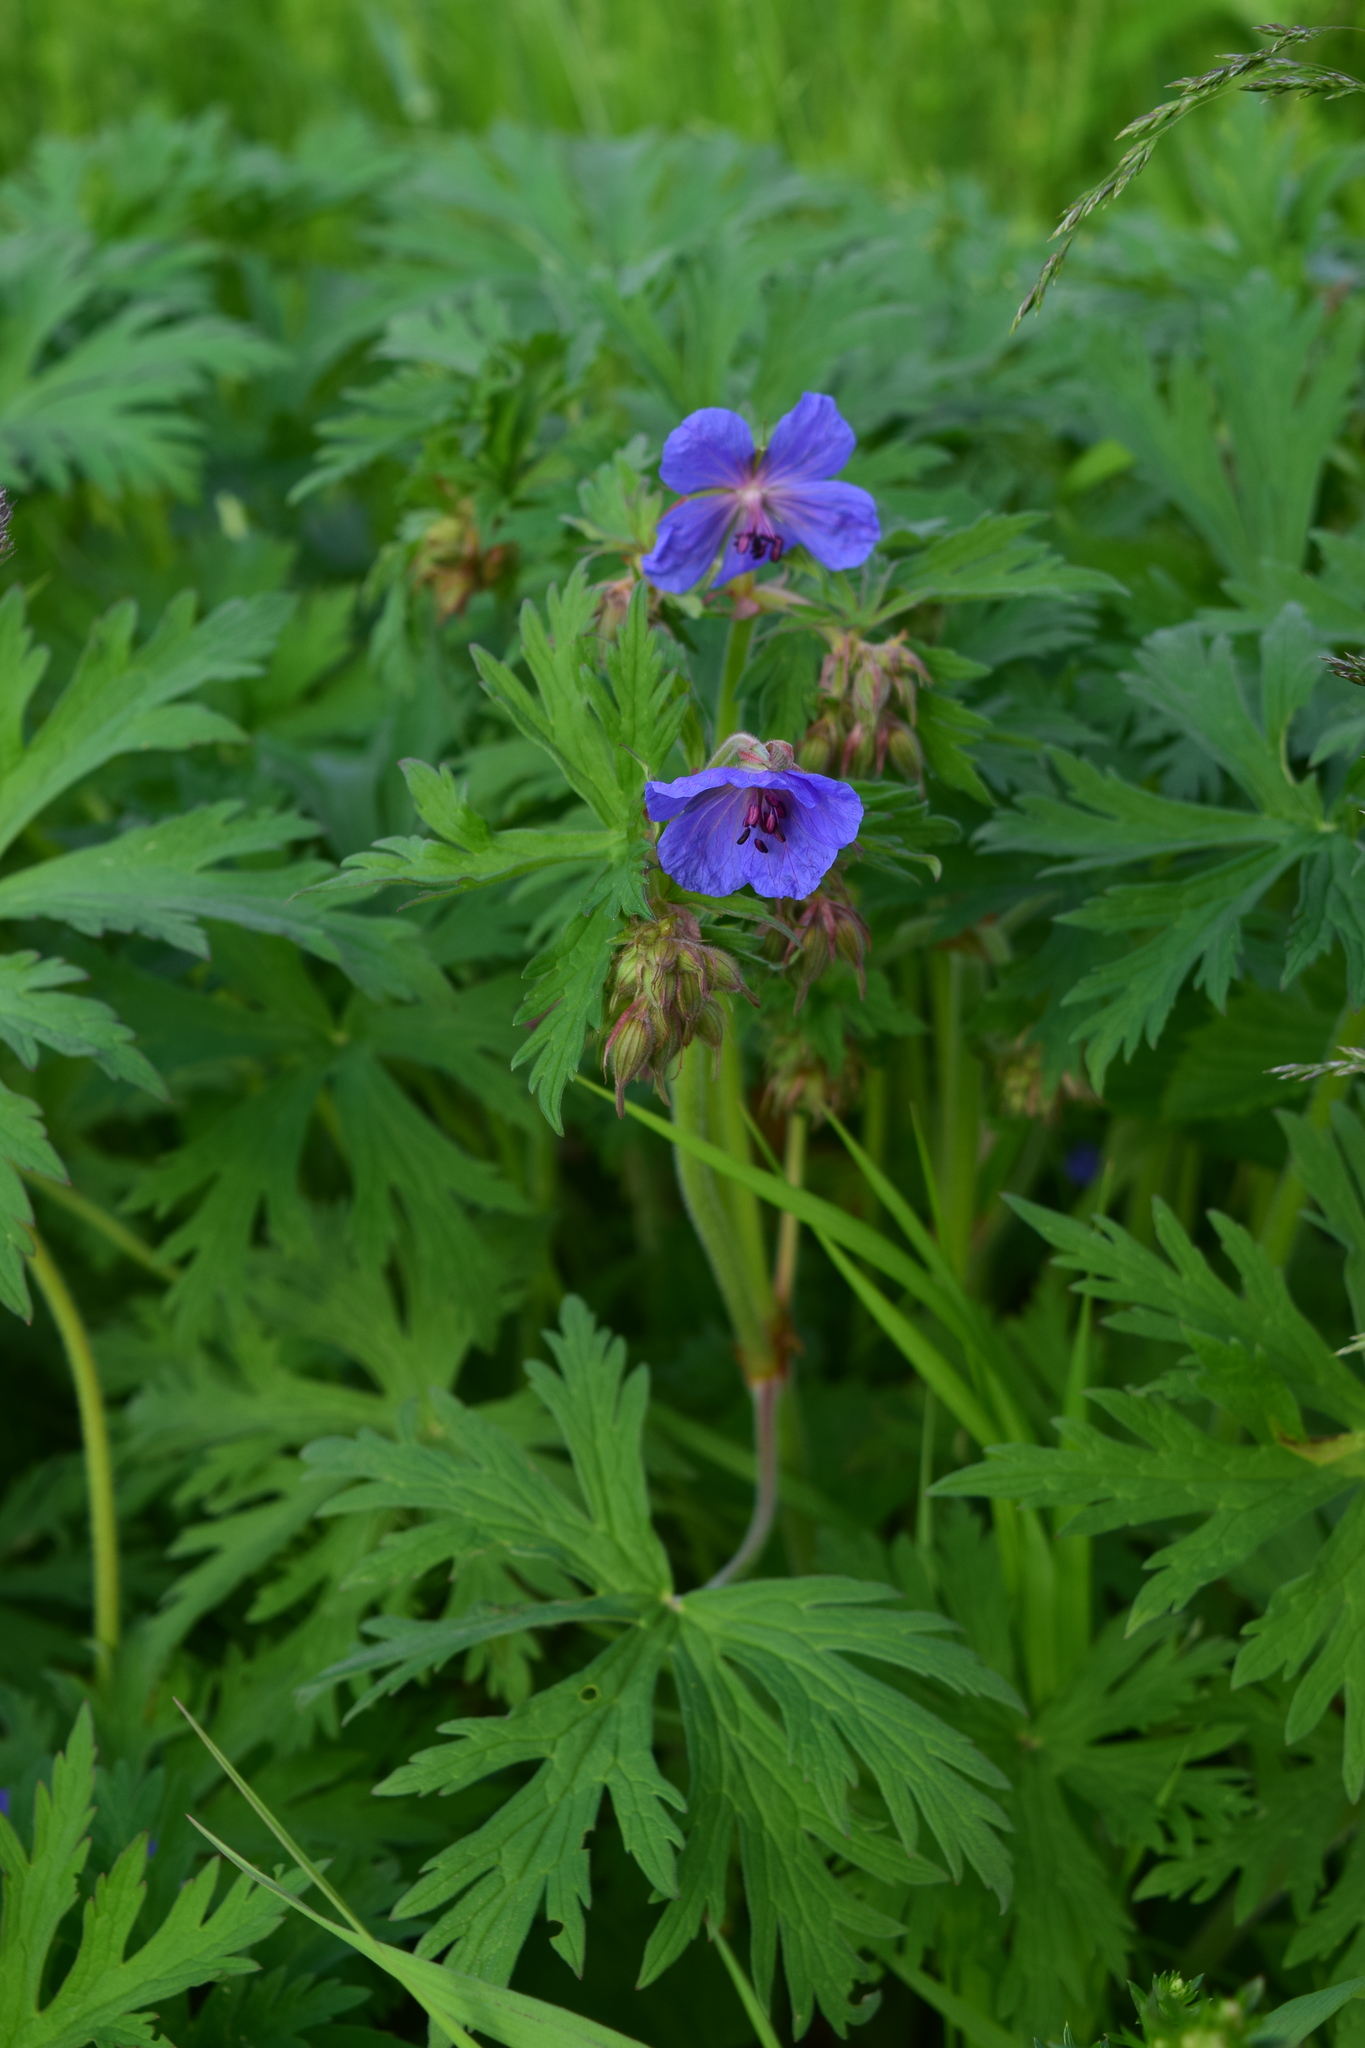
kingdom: Plantae
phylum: Tracheophyta
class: Magnoliopsida
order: Geraniales
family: Geraniaceae
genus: Geranium
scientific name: Geranium pratense
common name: Meadow crane's-bill
